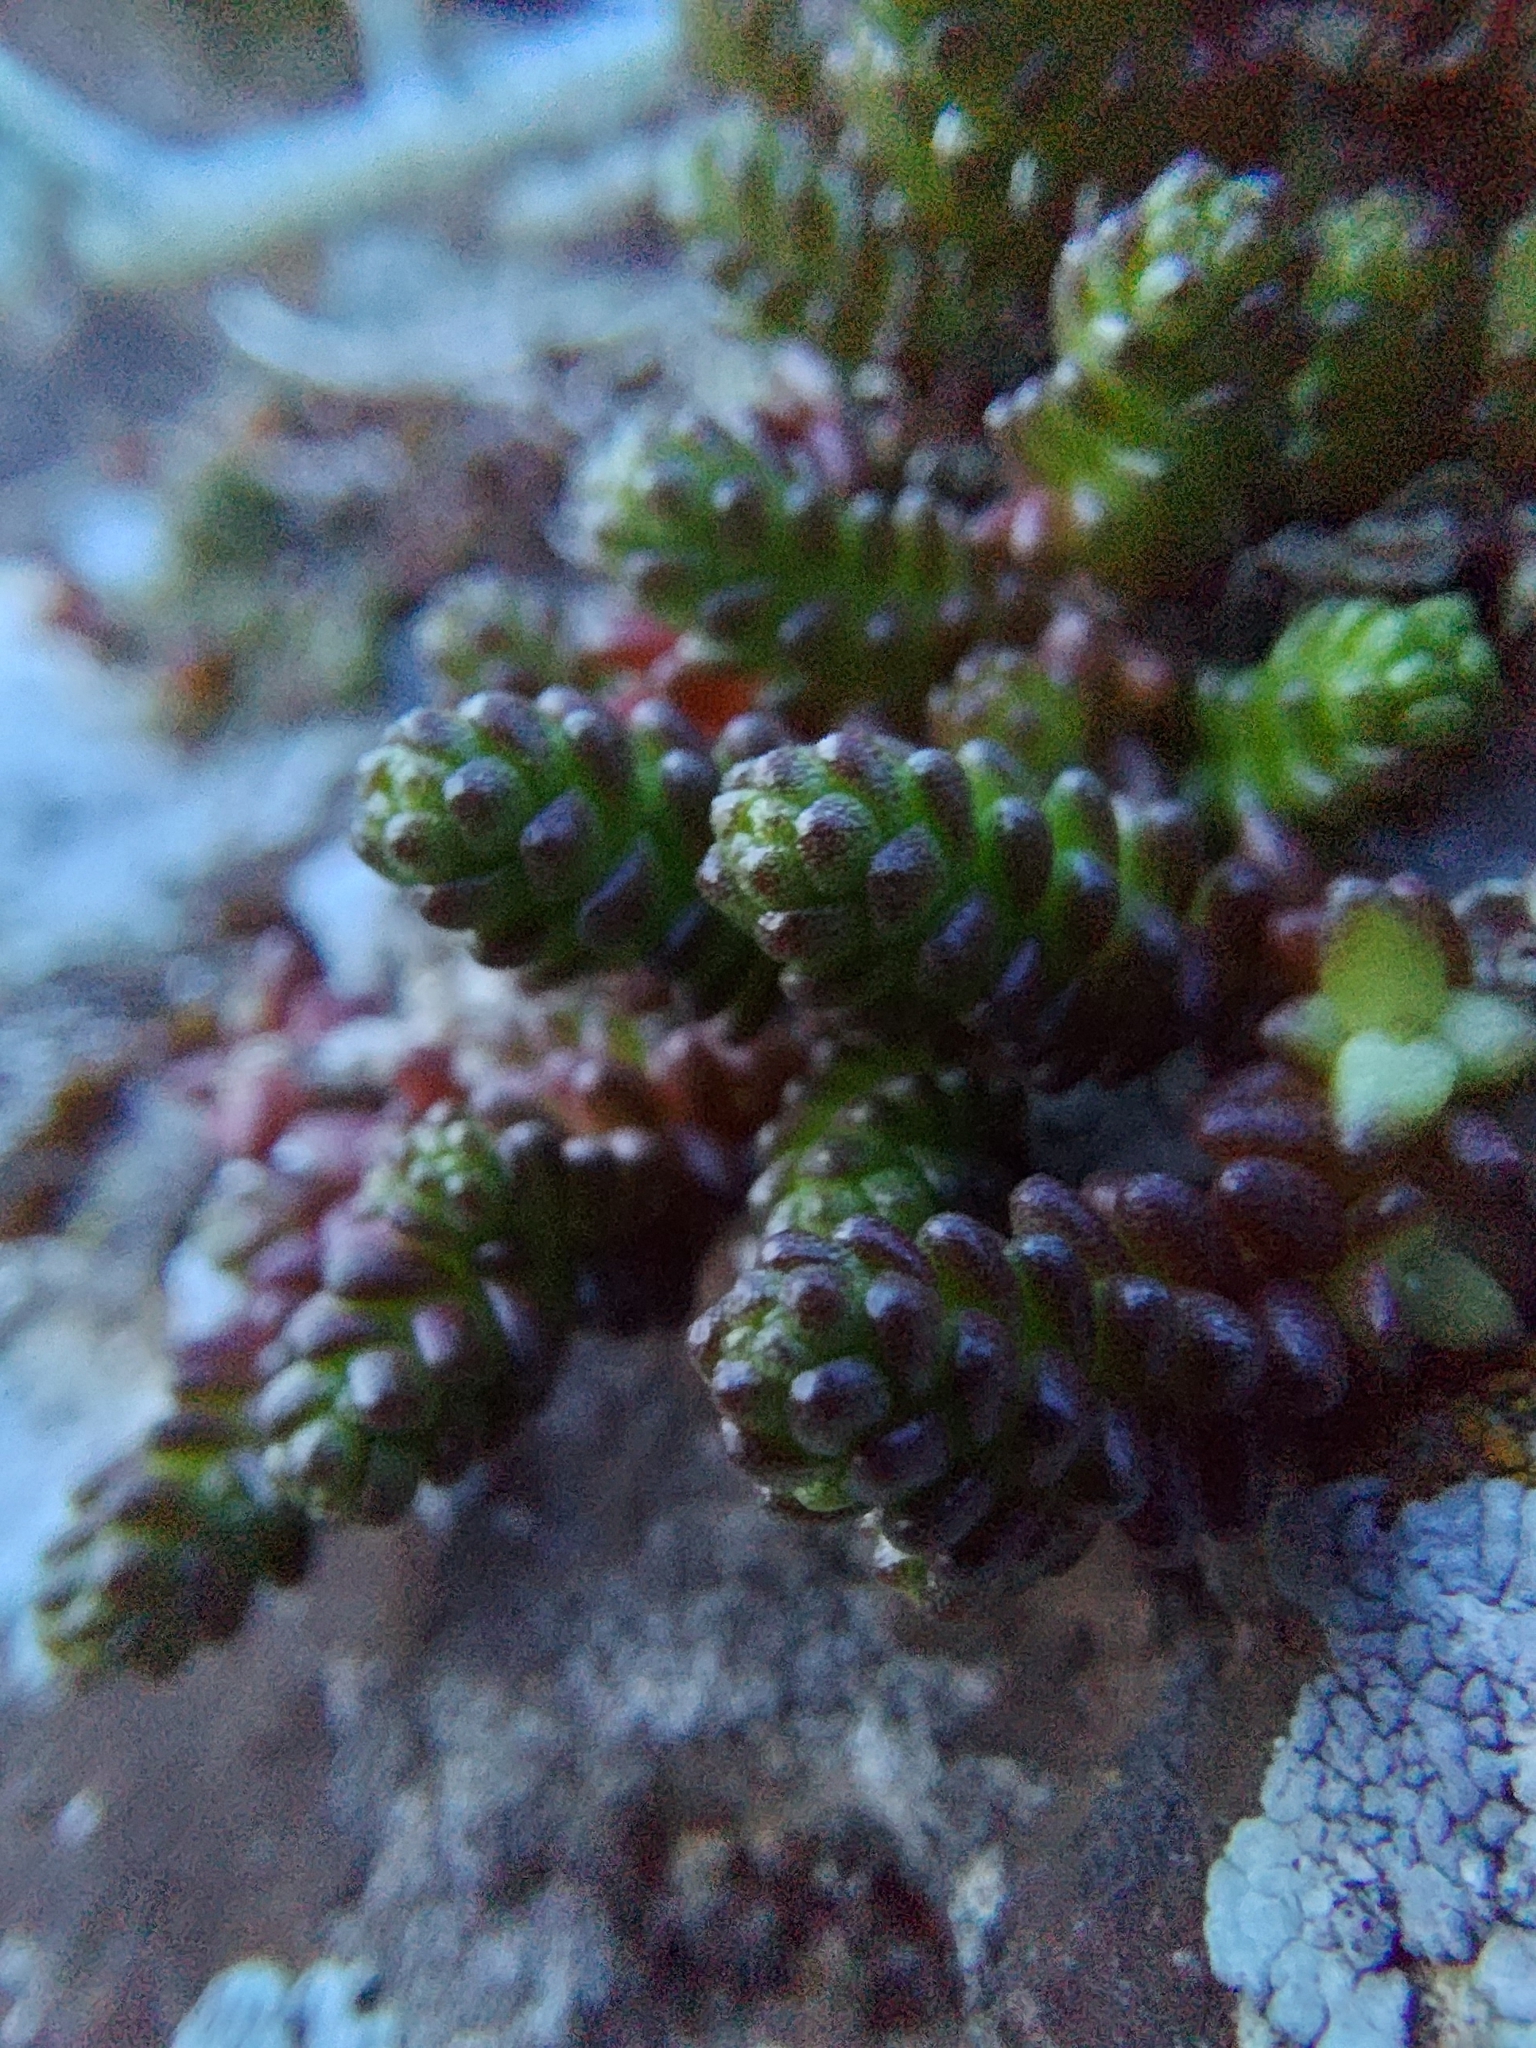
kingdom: Plantae
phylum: Tracheophyta
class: Magnoliopsida
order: Saxifragales
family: Crassulaceae
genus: Sedum
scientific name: Sedum acre
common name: Biting stonecrop
